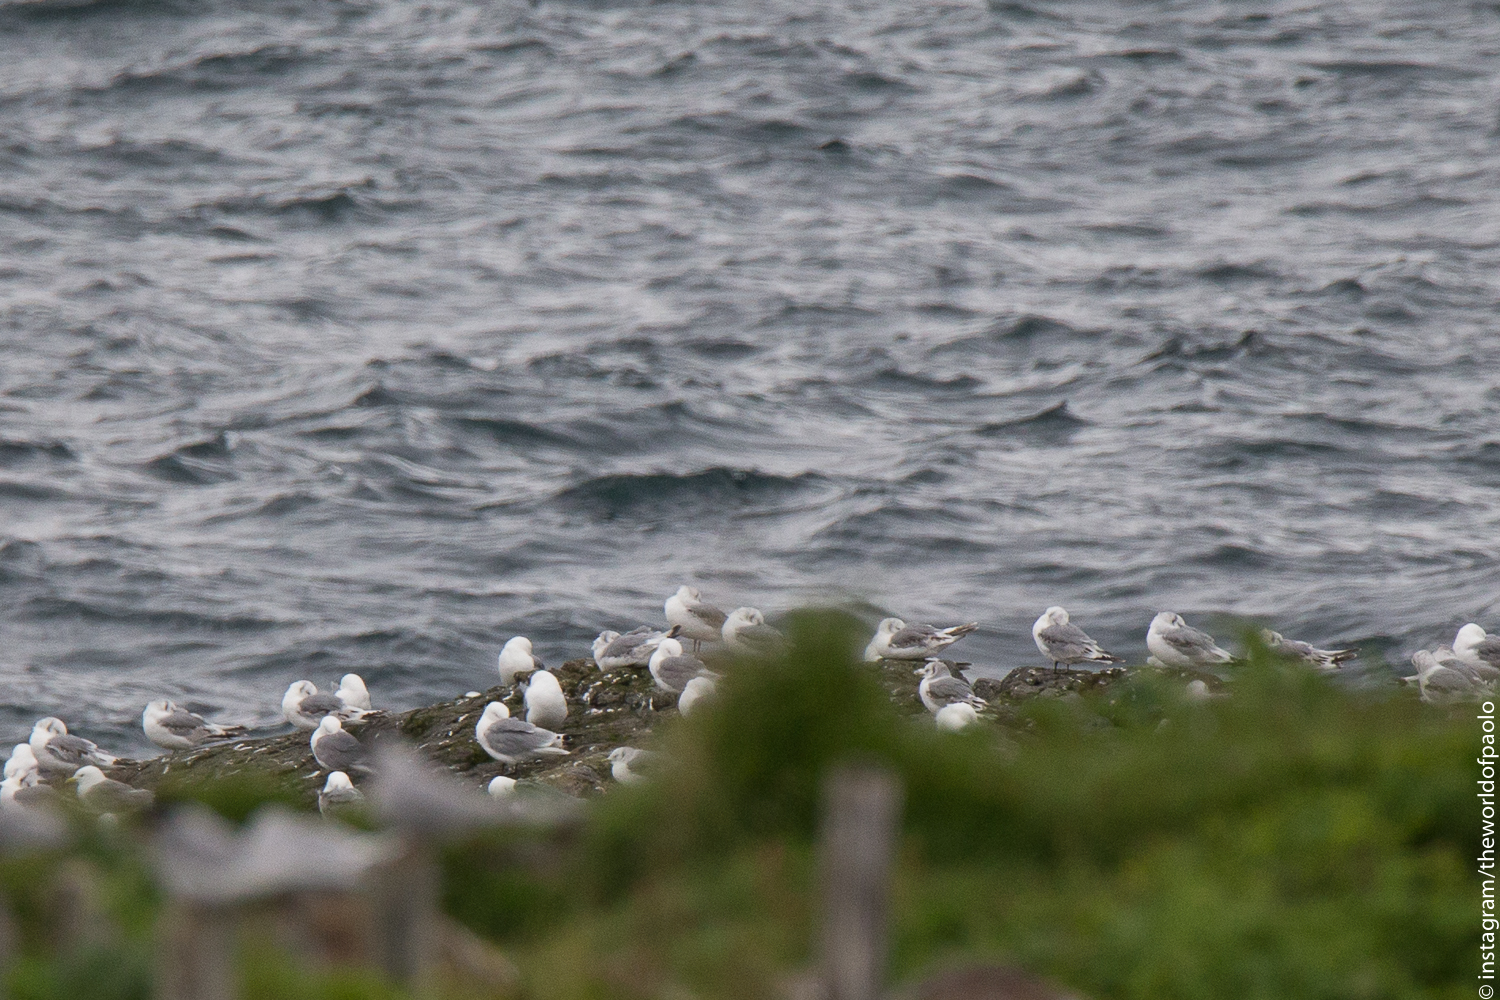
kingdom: Animalia
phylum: Chordata
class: Aves
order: Charadriiformes
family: Laridae
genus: Rissa
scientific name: Rissa tridactyla
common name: Black-legged kittiwake
